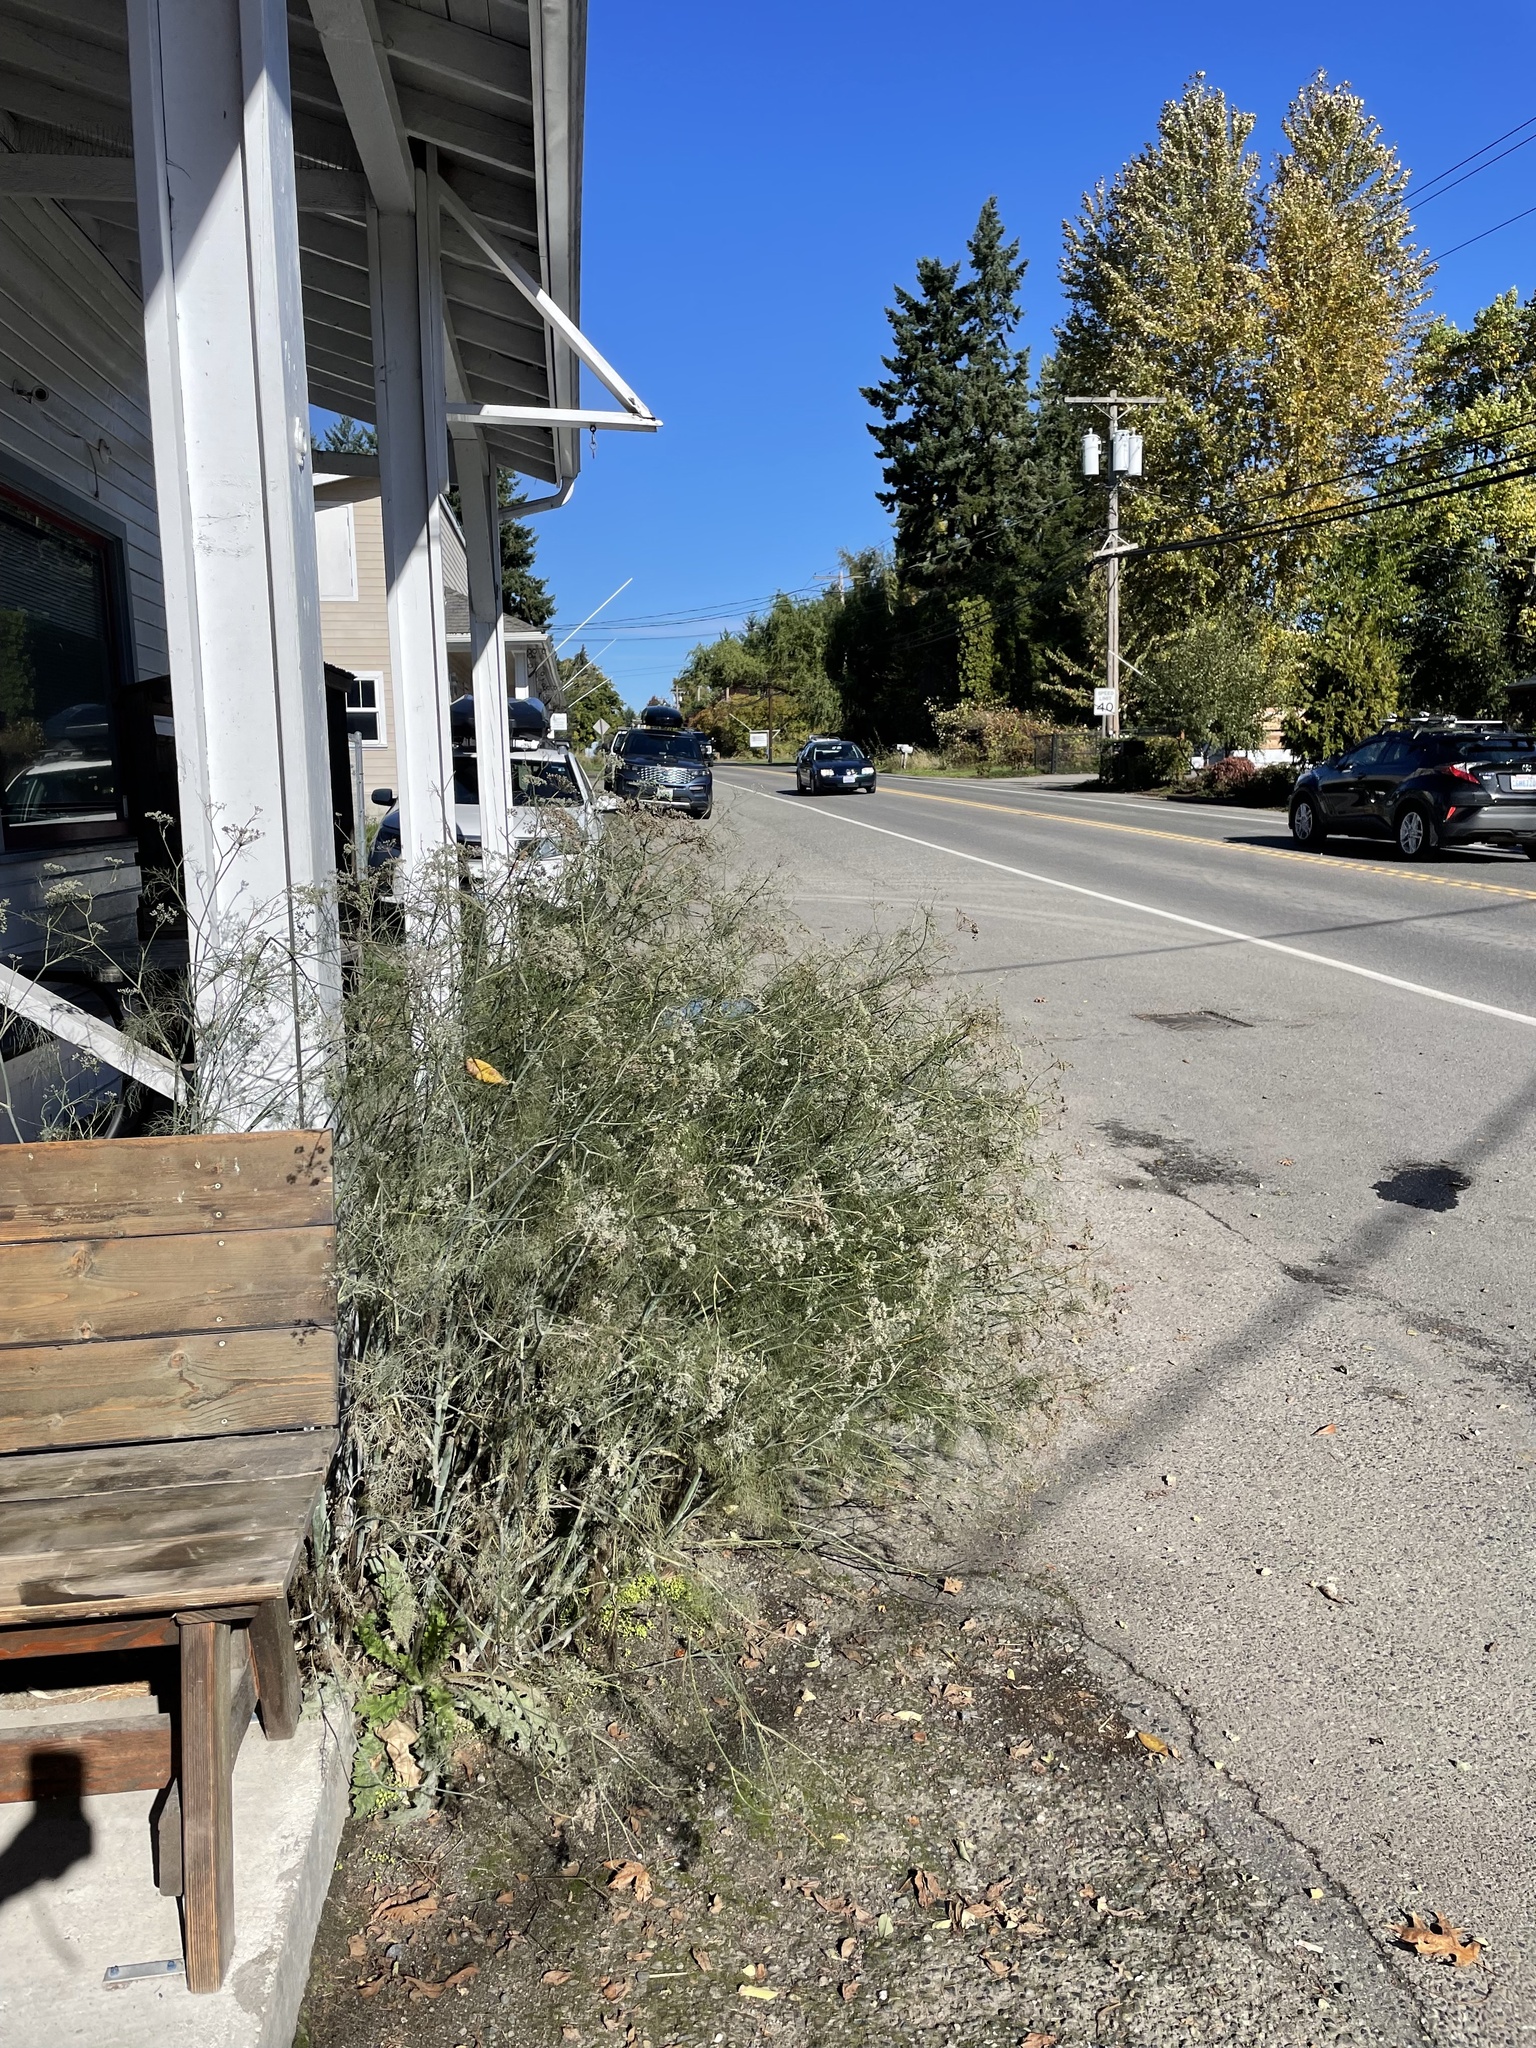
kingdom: Plantae
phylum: Tracheophyta
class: Magnoliopsida
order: Apiales
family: Apiaceae
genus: Foeniculum
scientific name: Foeniculum vulgare
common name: Fennel
